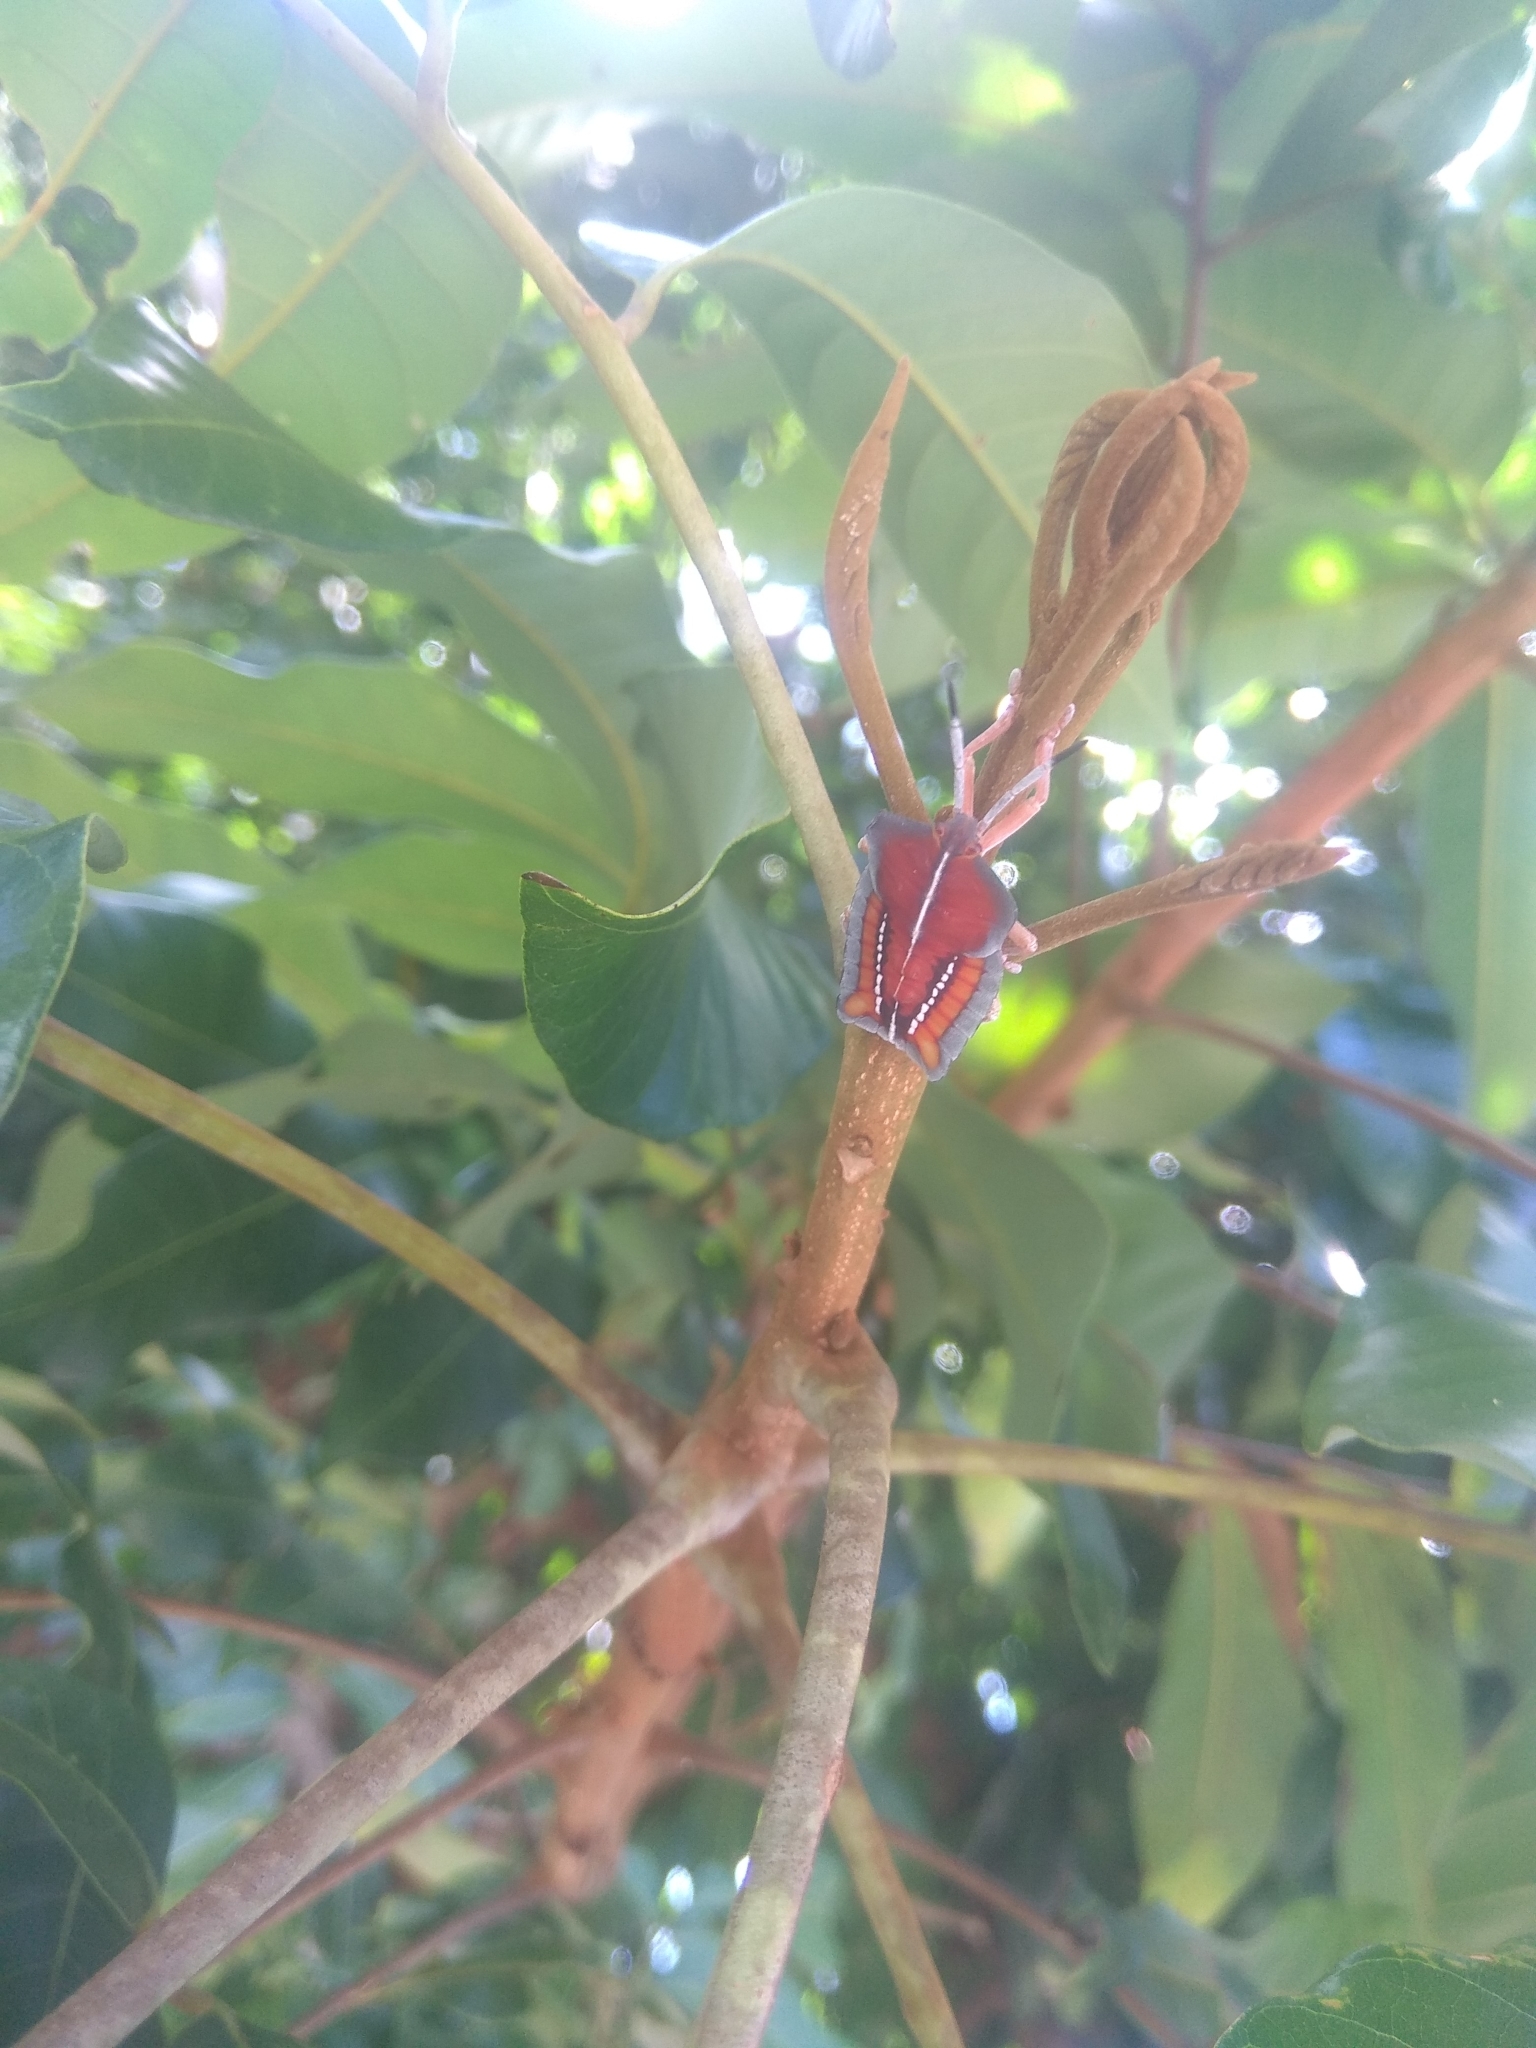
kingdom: Animalia
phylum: Arthropoda
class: Insecta
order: Hemiptera
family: Tessaratomidae
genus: Tessaratoma
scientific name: Tessaratoma papillosa
